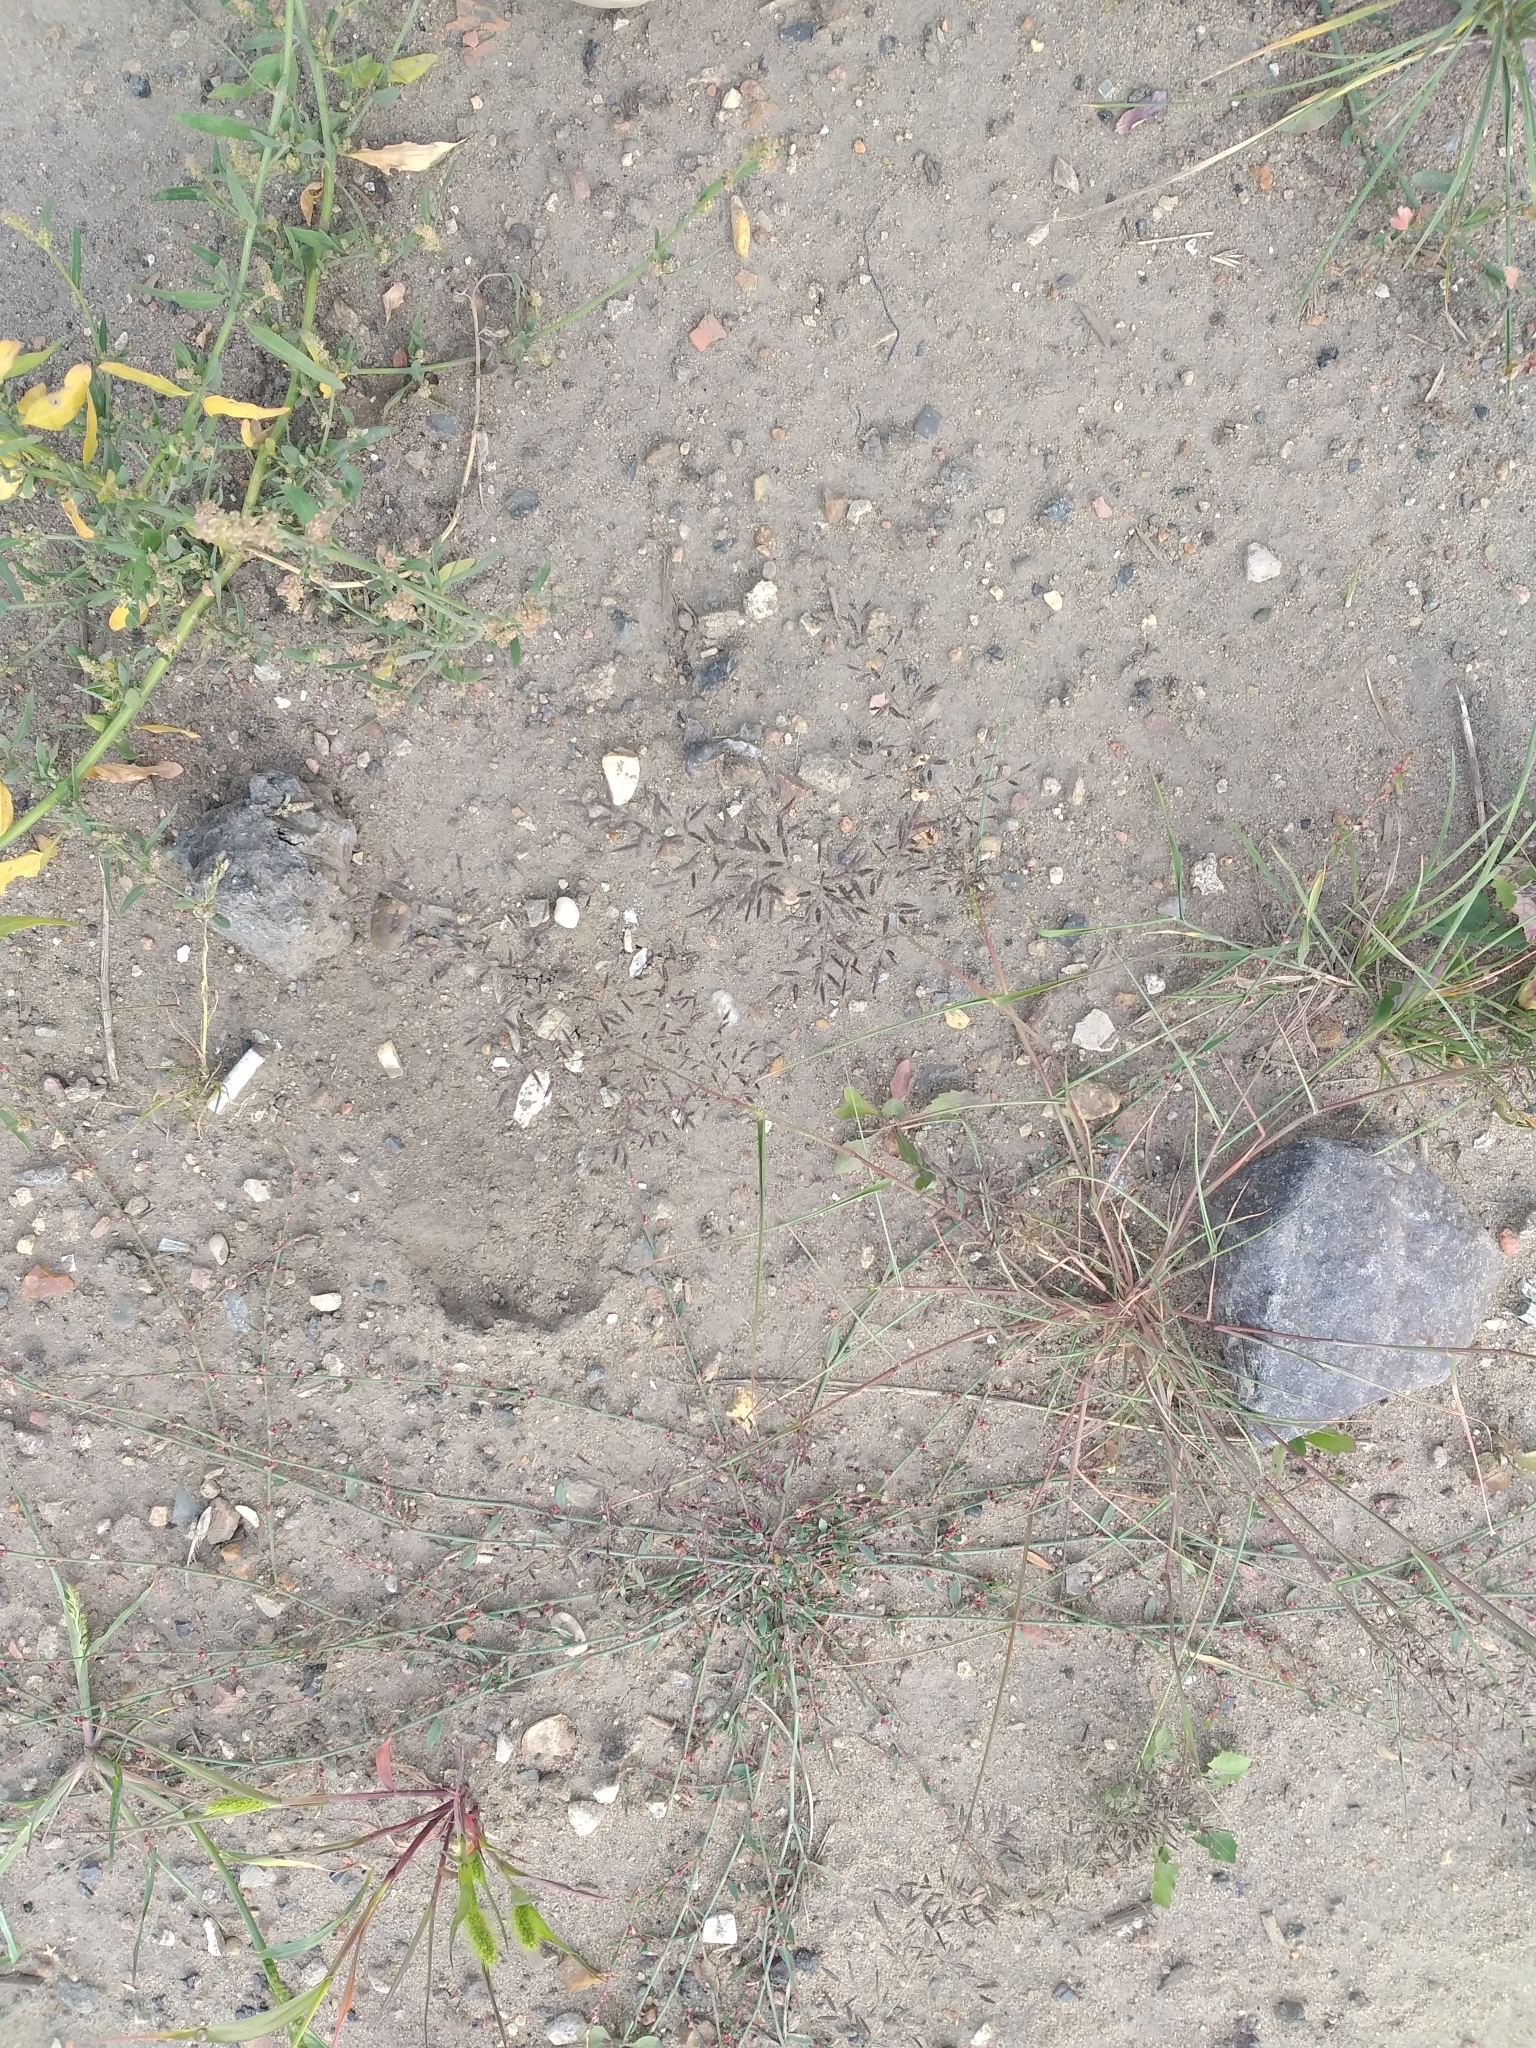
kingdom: Plantae
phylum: Tracheophyta
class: Liliopsida
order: Poales
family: Poaceae
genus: Eragrostis
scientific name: Eragrostis minor
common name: Small love-grass
